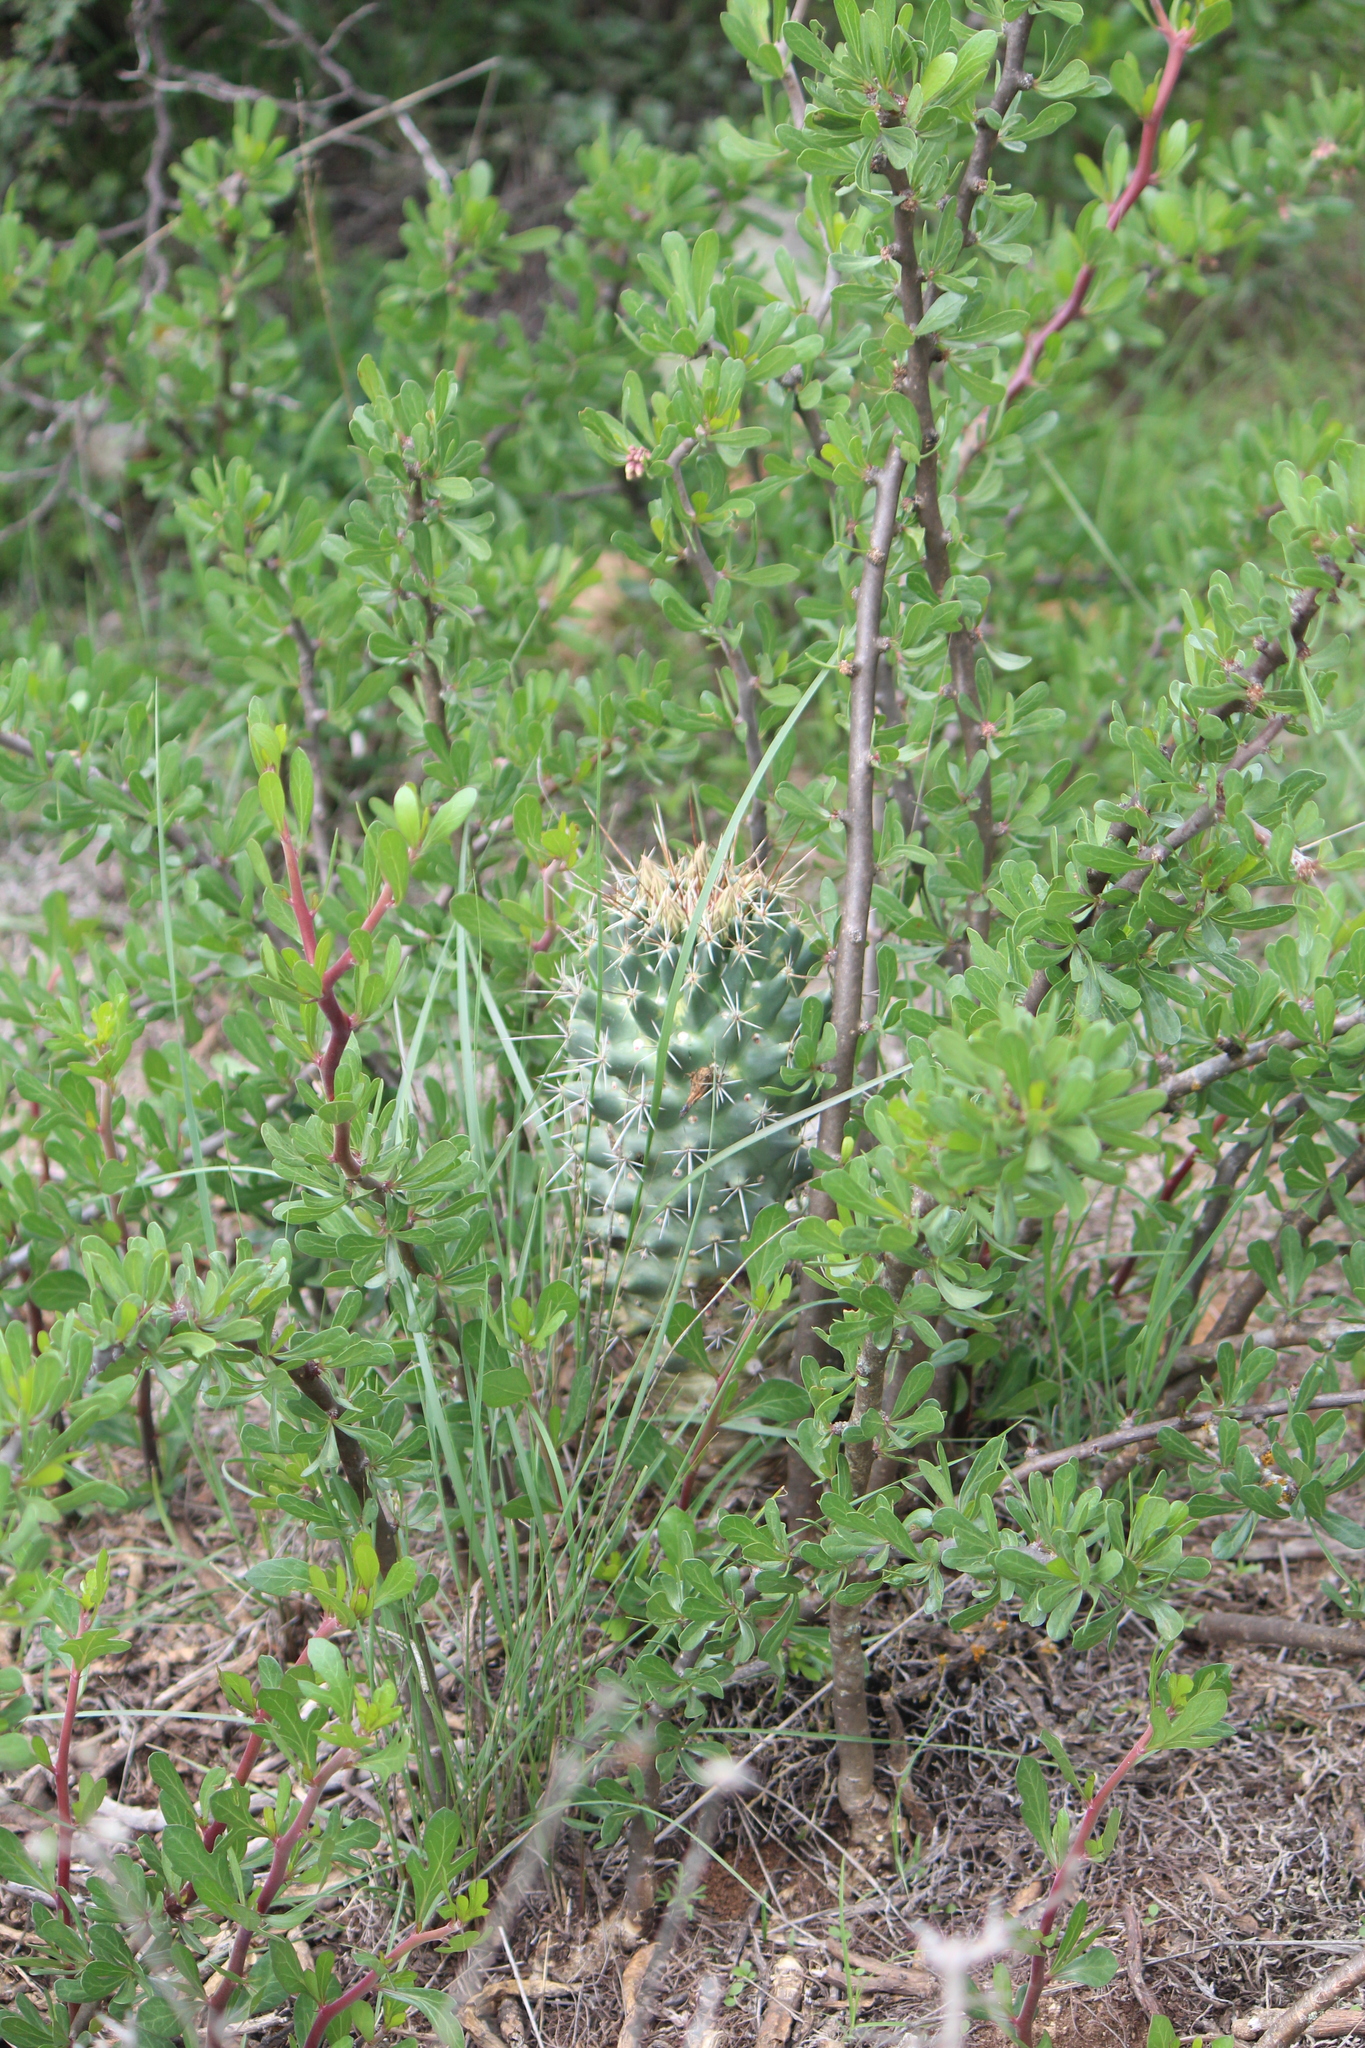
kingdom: Plantae
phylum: Tracheophyta
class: Magnoliopsida
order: Caryophyllales
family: Cactaceae
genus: Coryphantha
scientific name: Coryphantha octacantha
